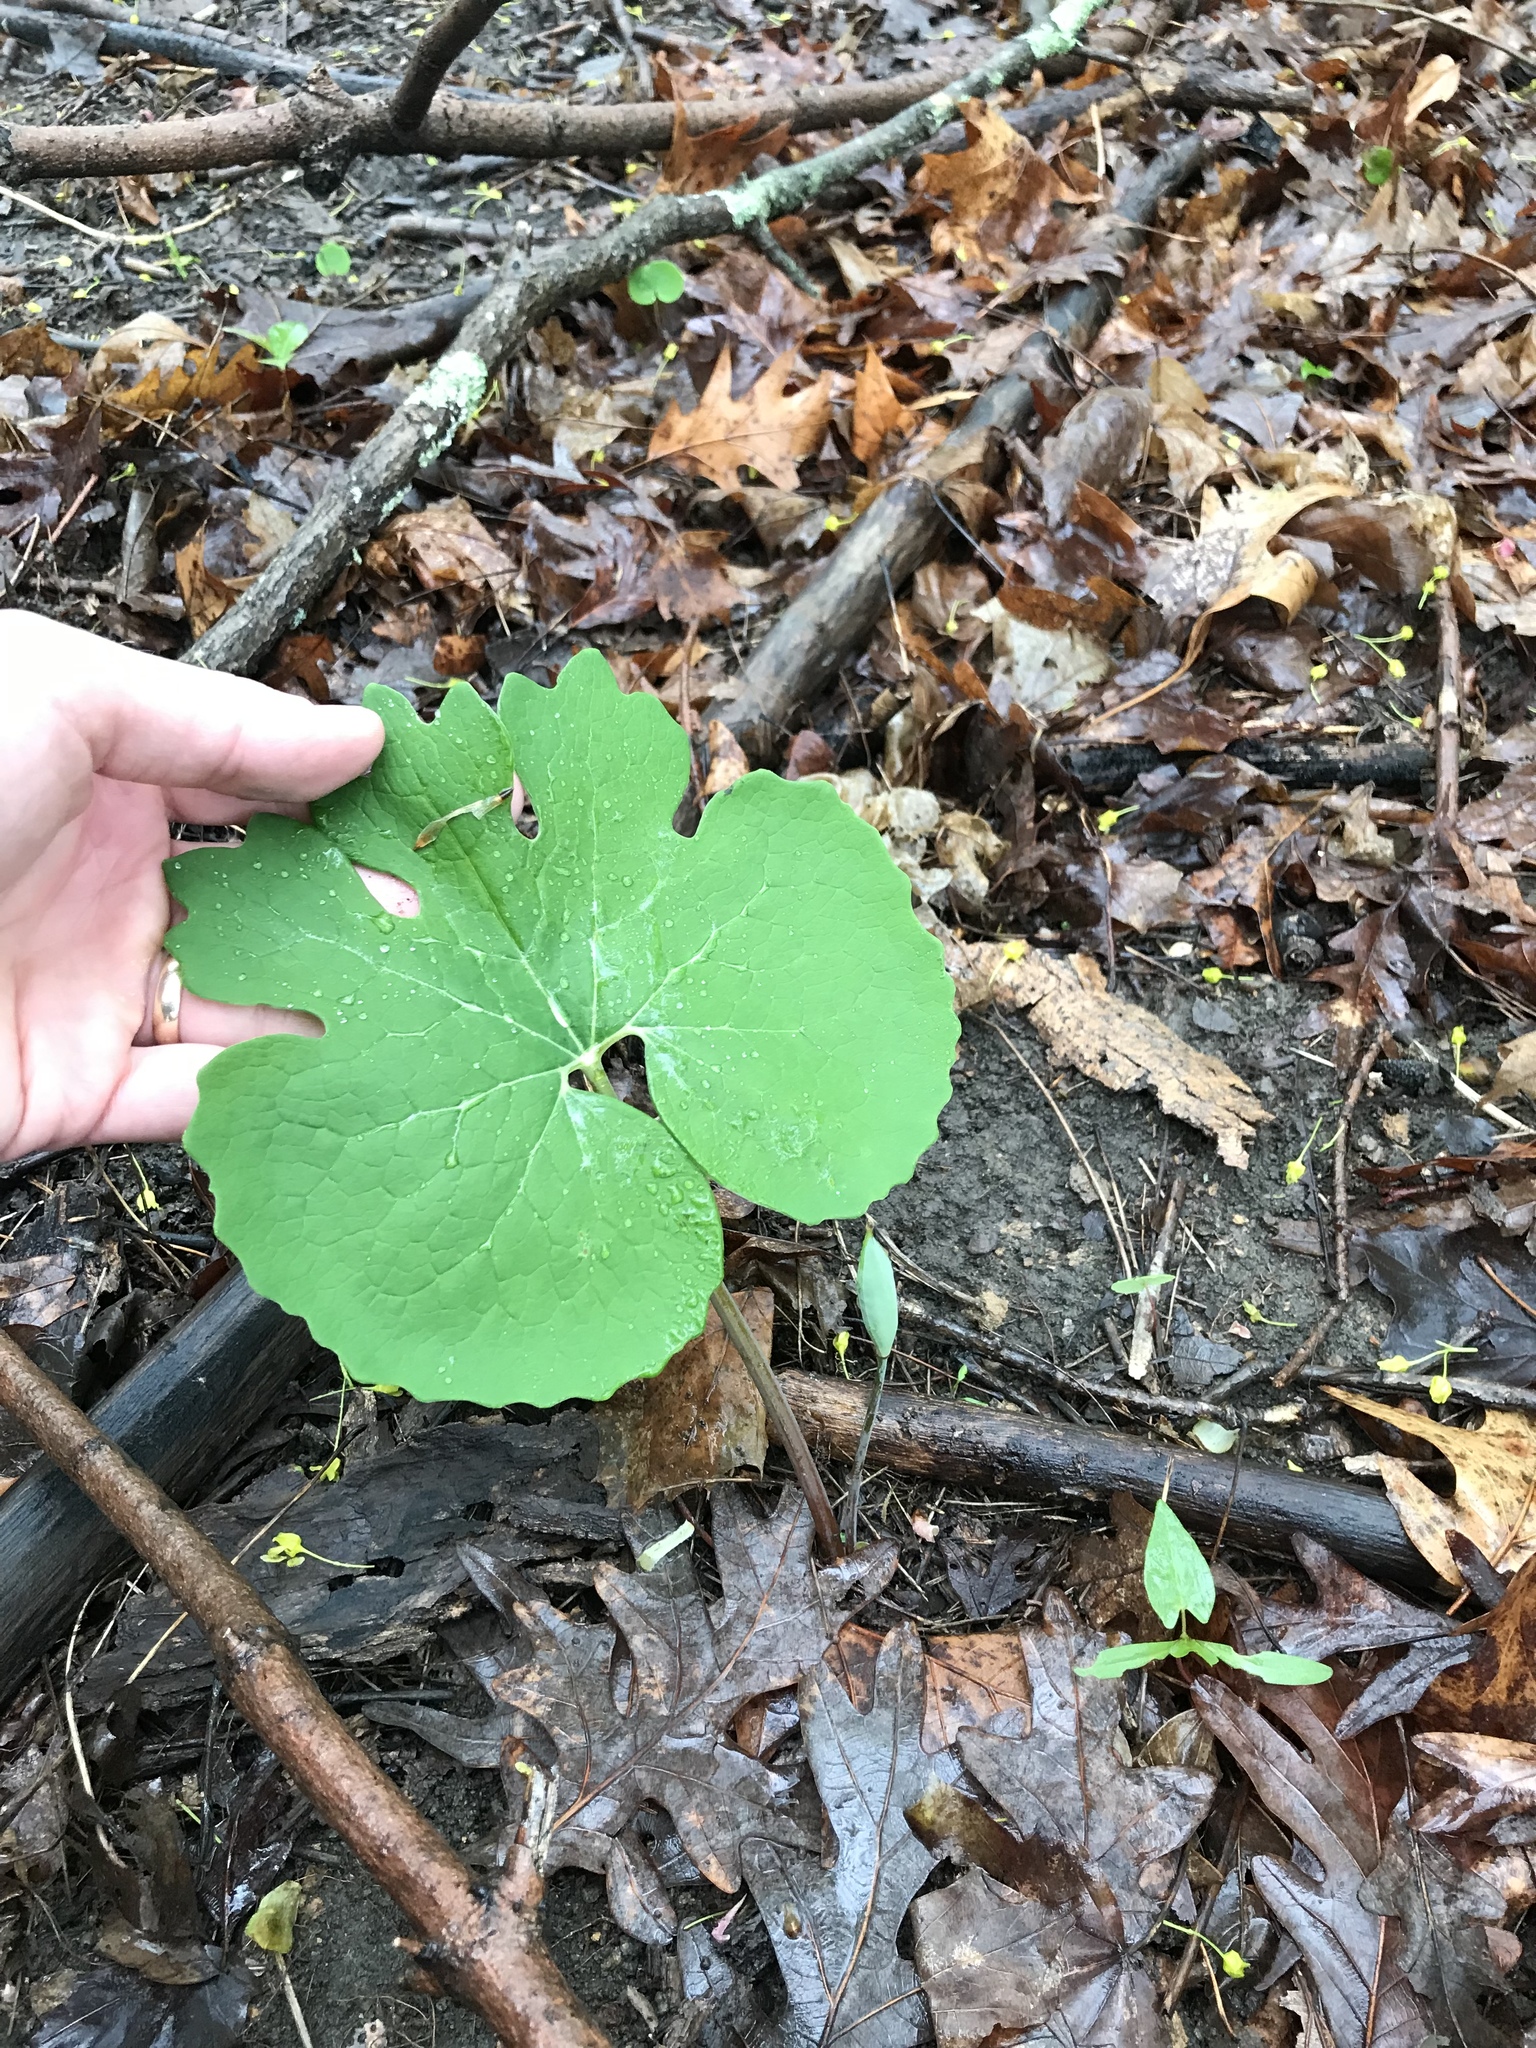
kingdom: Plantae
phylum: Tracheophyta
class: Magnoliopsida
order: Ranunculales
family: Papaveraceae
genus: Sanguinaria
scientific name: Sanguinaria canadensis
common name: Bloodroot
